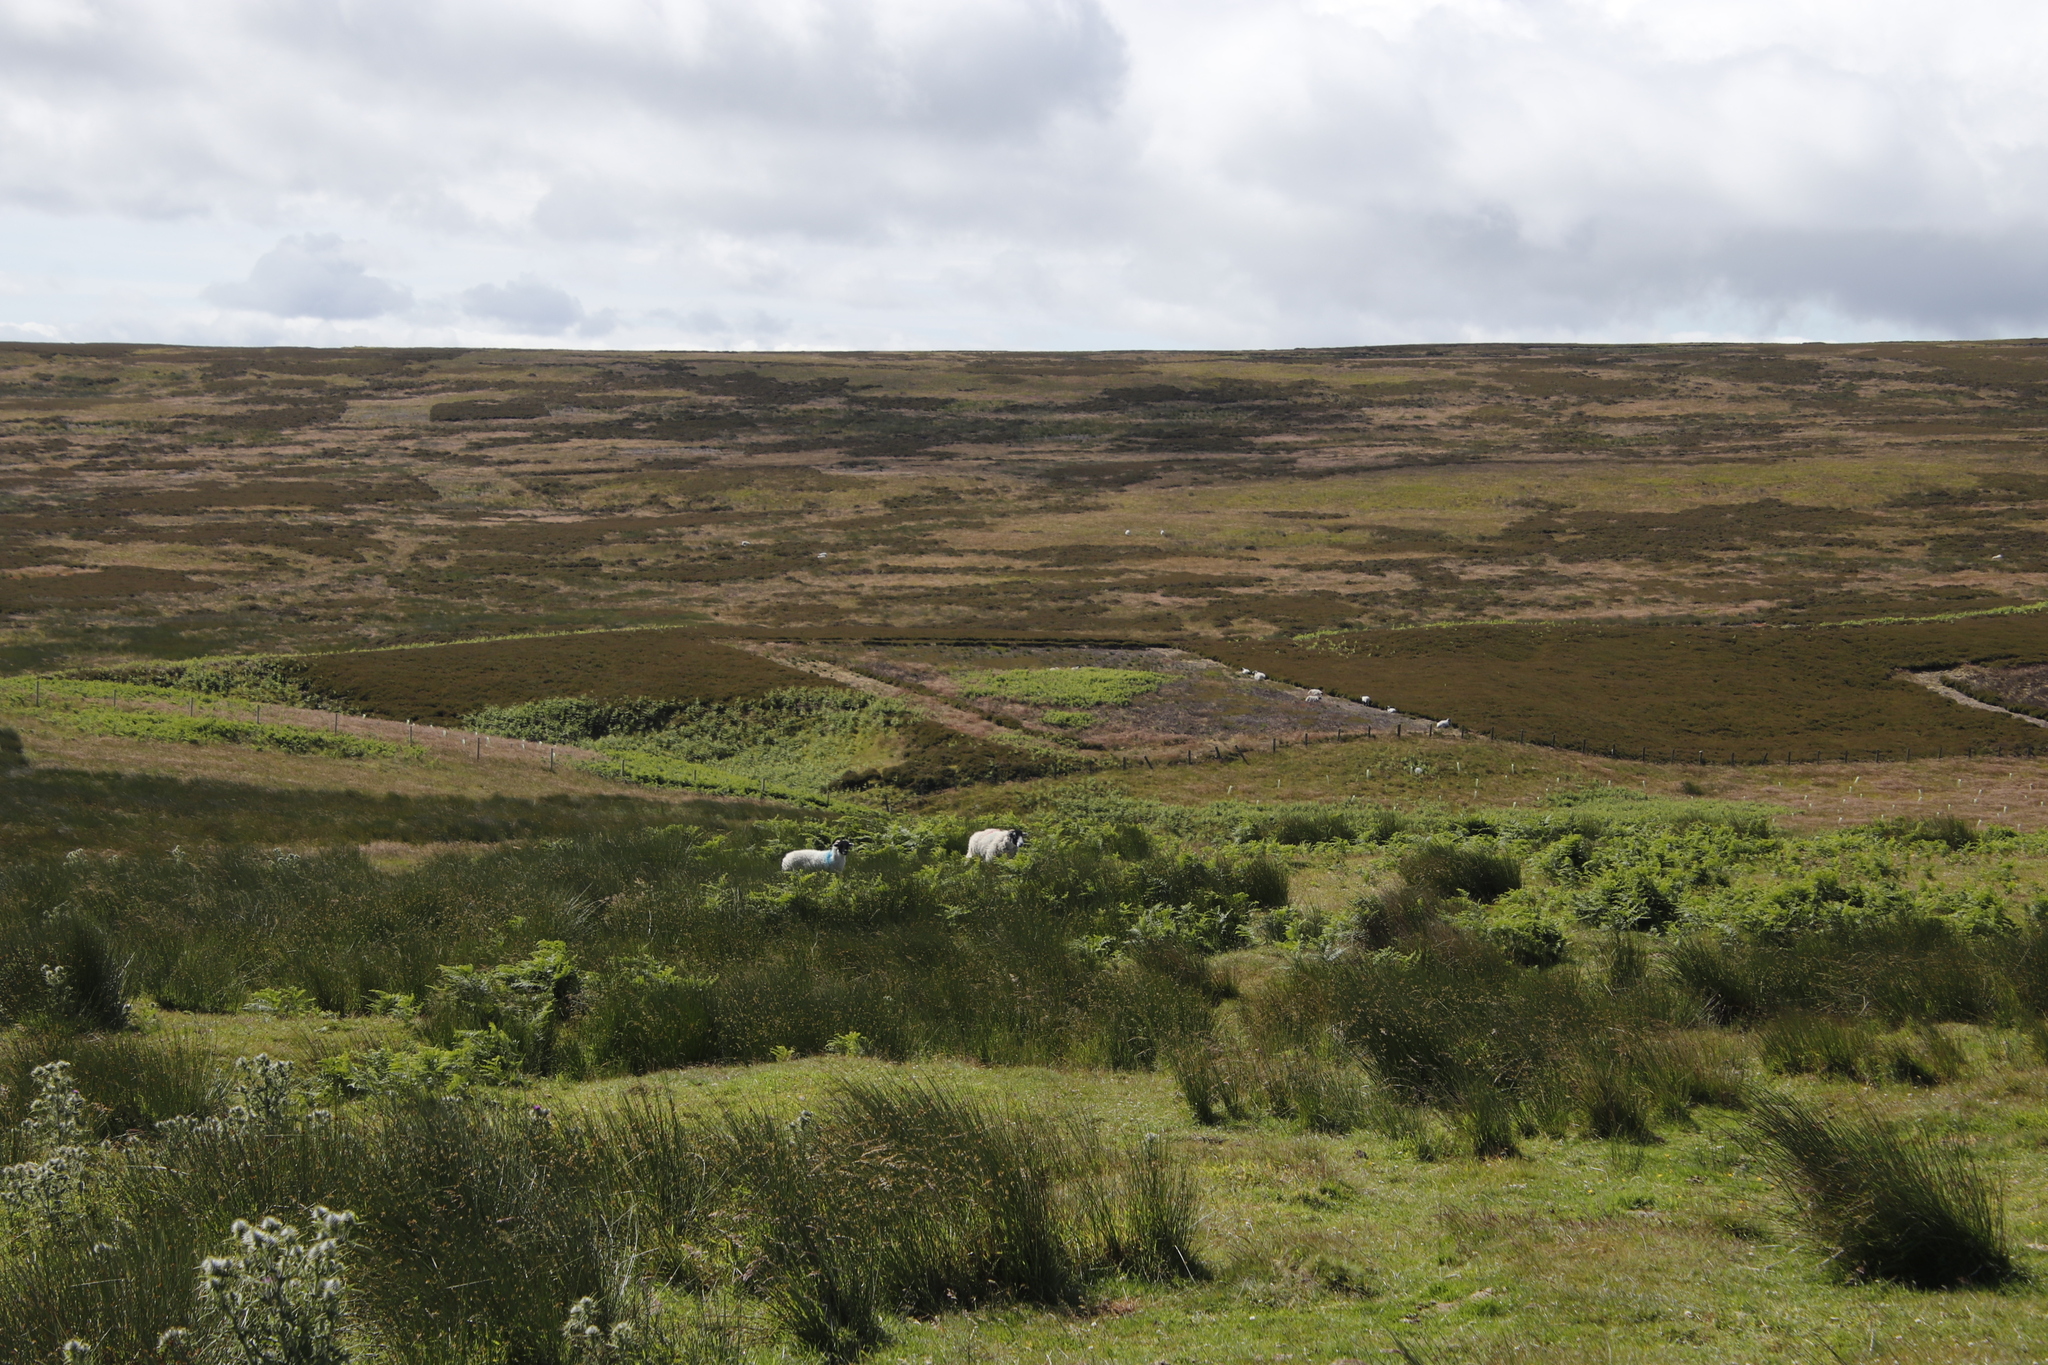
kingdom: Plantae
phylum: Tracheophyta
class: Magnoliopsida
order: Ericales
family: Ericaceae
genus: Calluna
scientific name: Calluna vulgaris
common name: Heather
